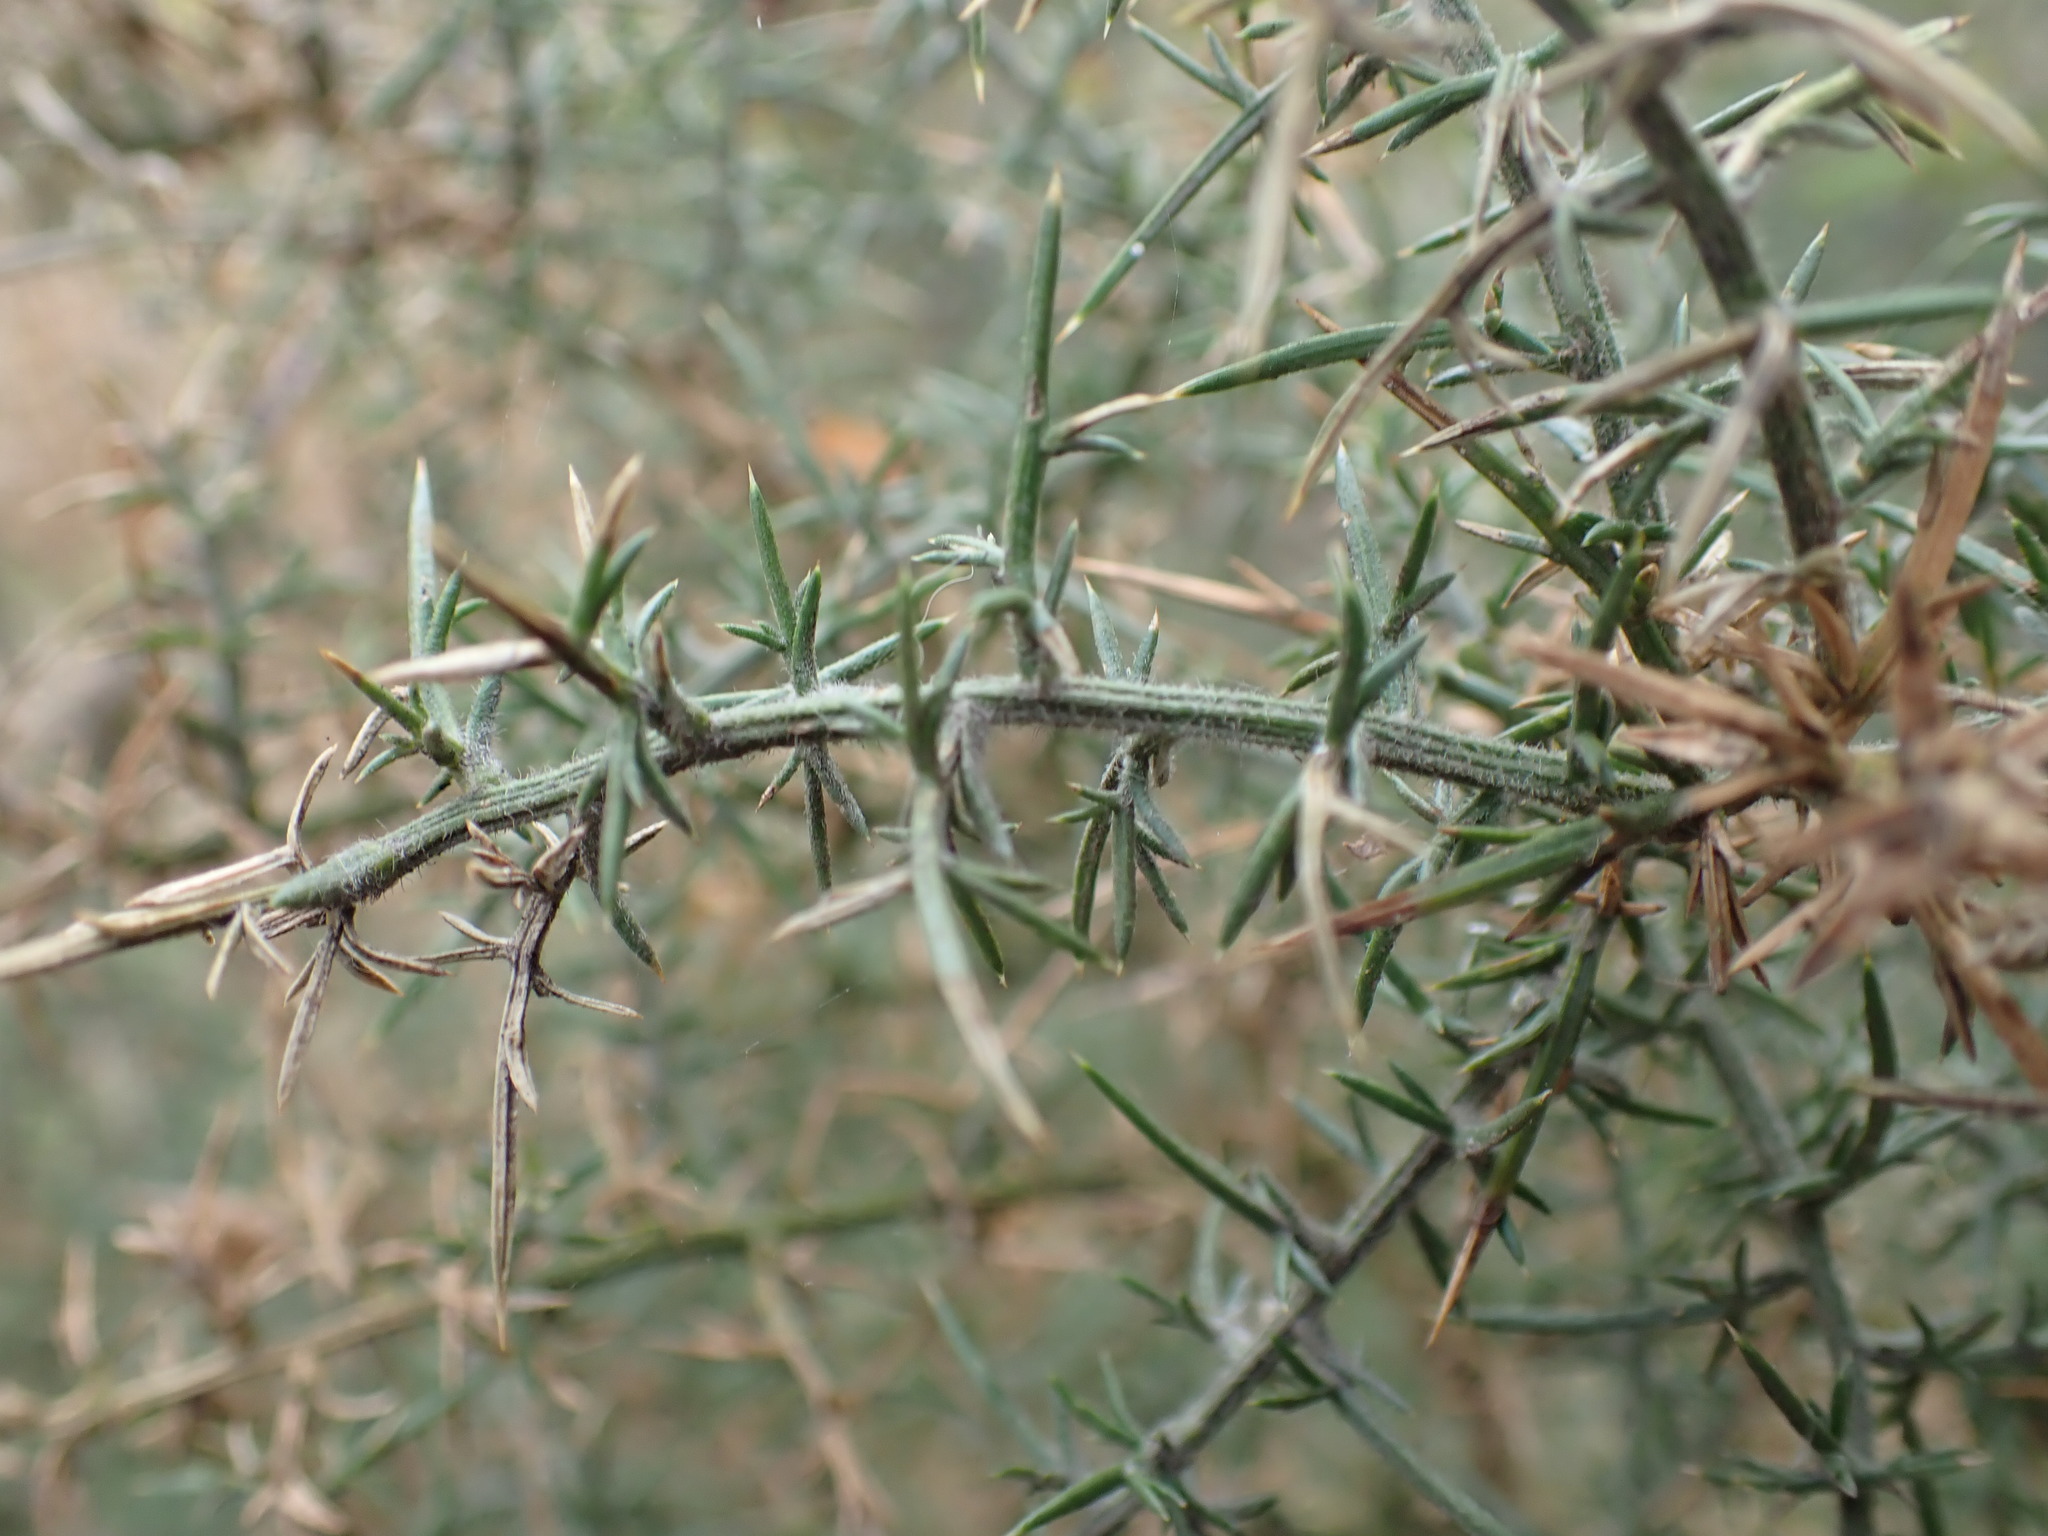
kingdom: Plantae
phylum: Tracheophyta
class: Magnoliopsida
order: Fabales
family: Fabaceae
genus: Ulex
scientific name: Ulex europaeus
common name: Common gorse
